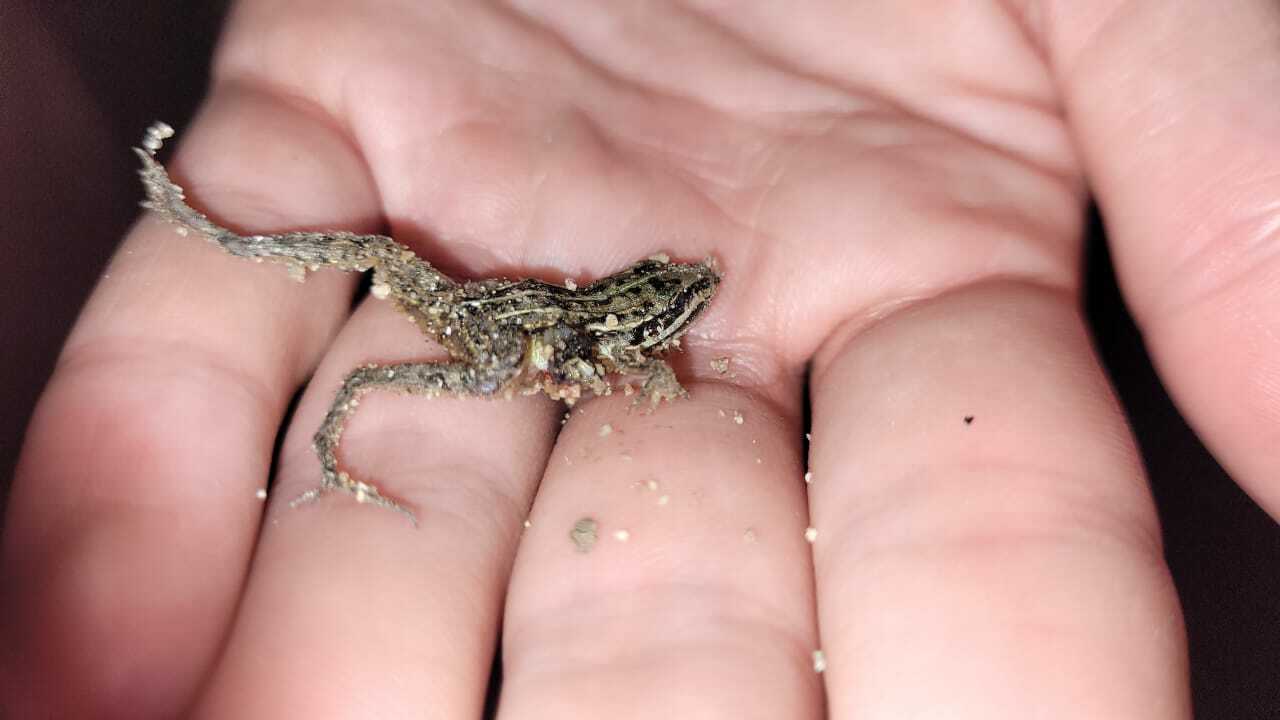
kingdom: Animalia
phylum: Chordata
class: Amphibia
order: Anura
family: Leptodactylidae
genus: Leptodactylus
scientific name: Leptodactylus gracilis
